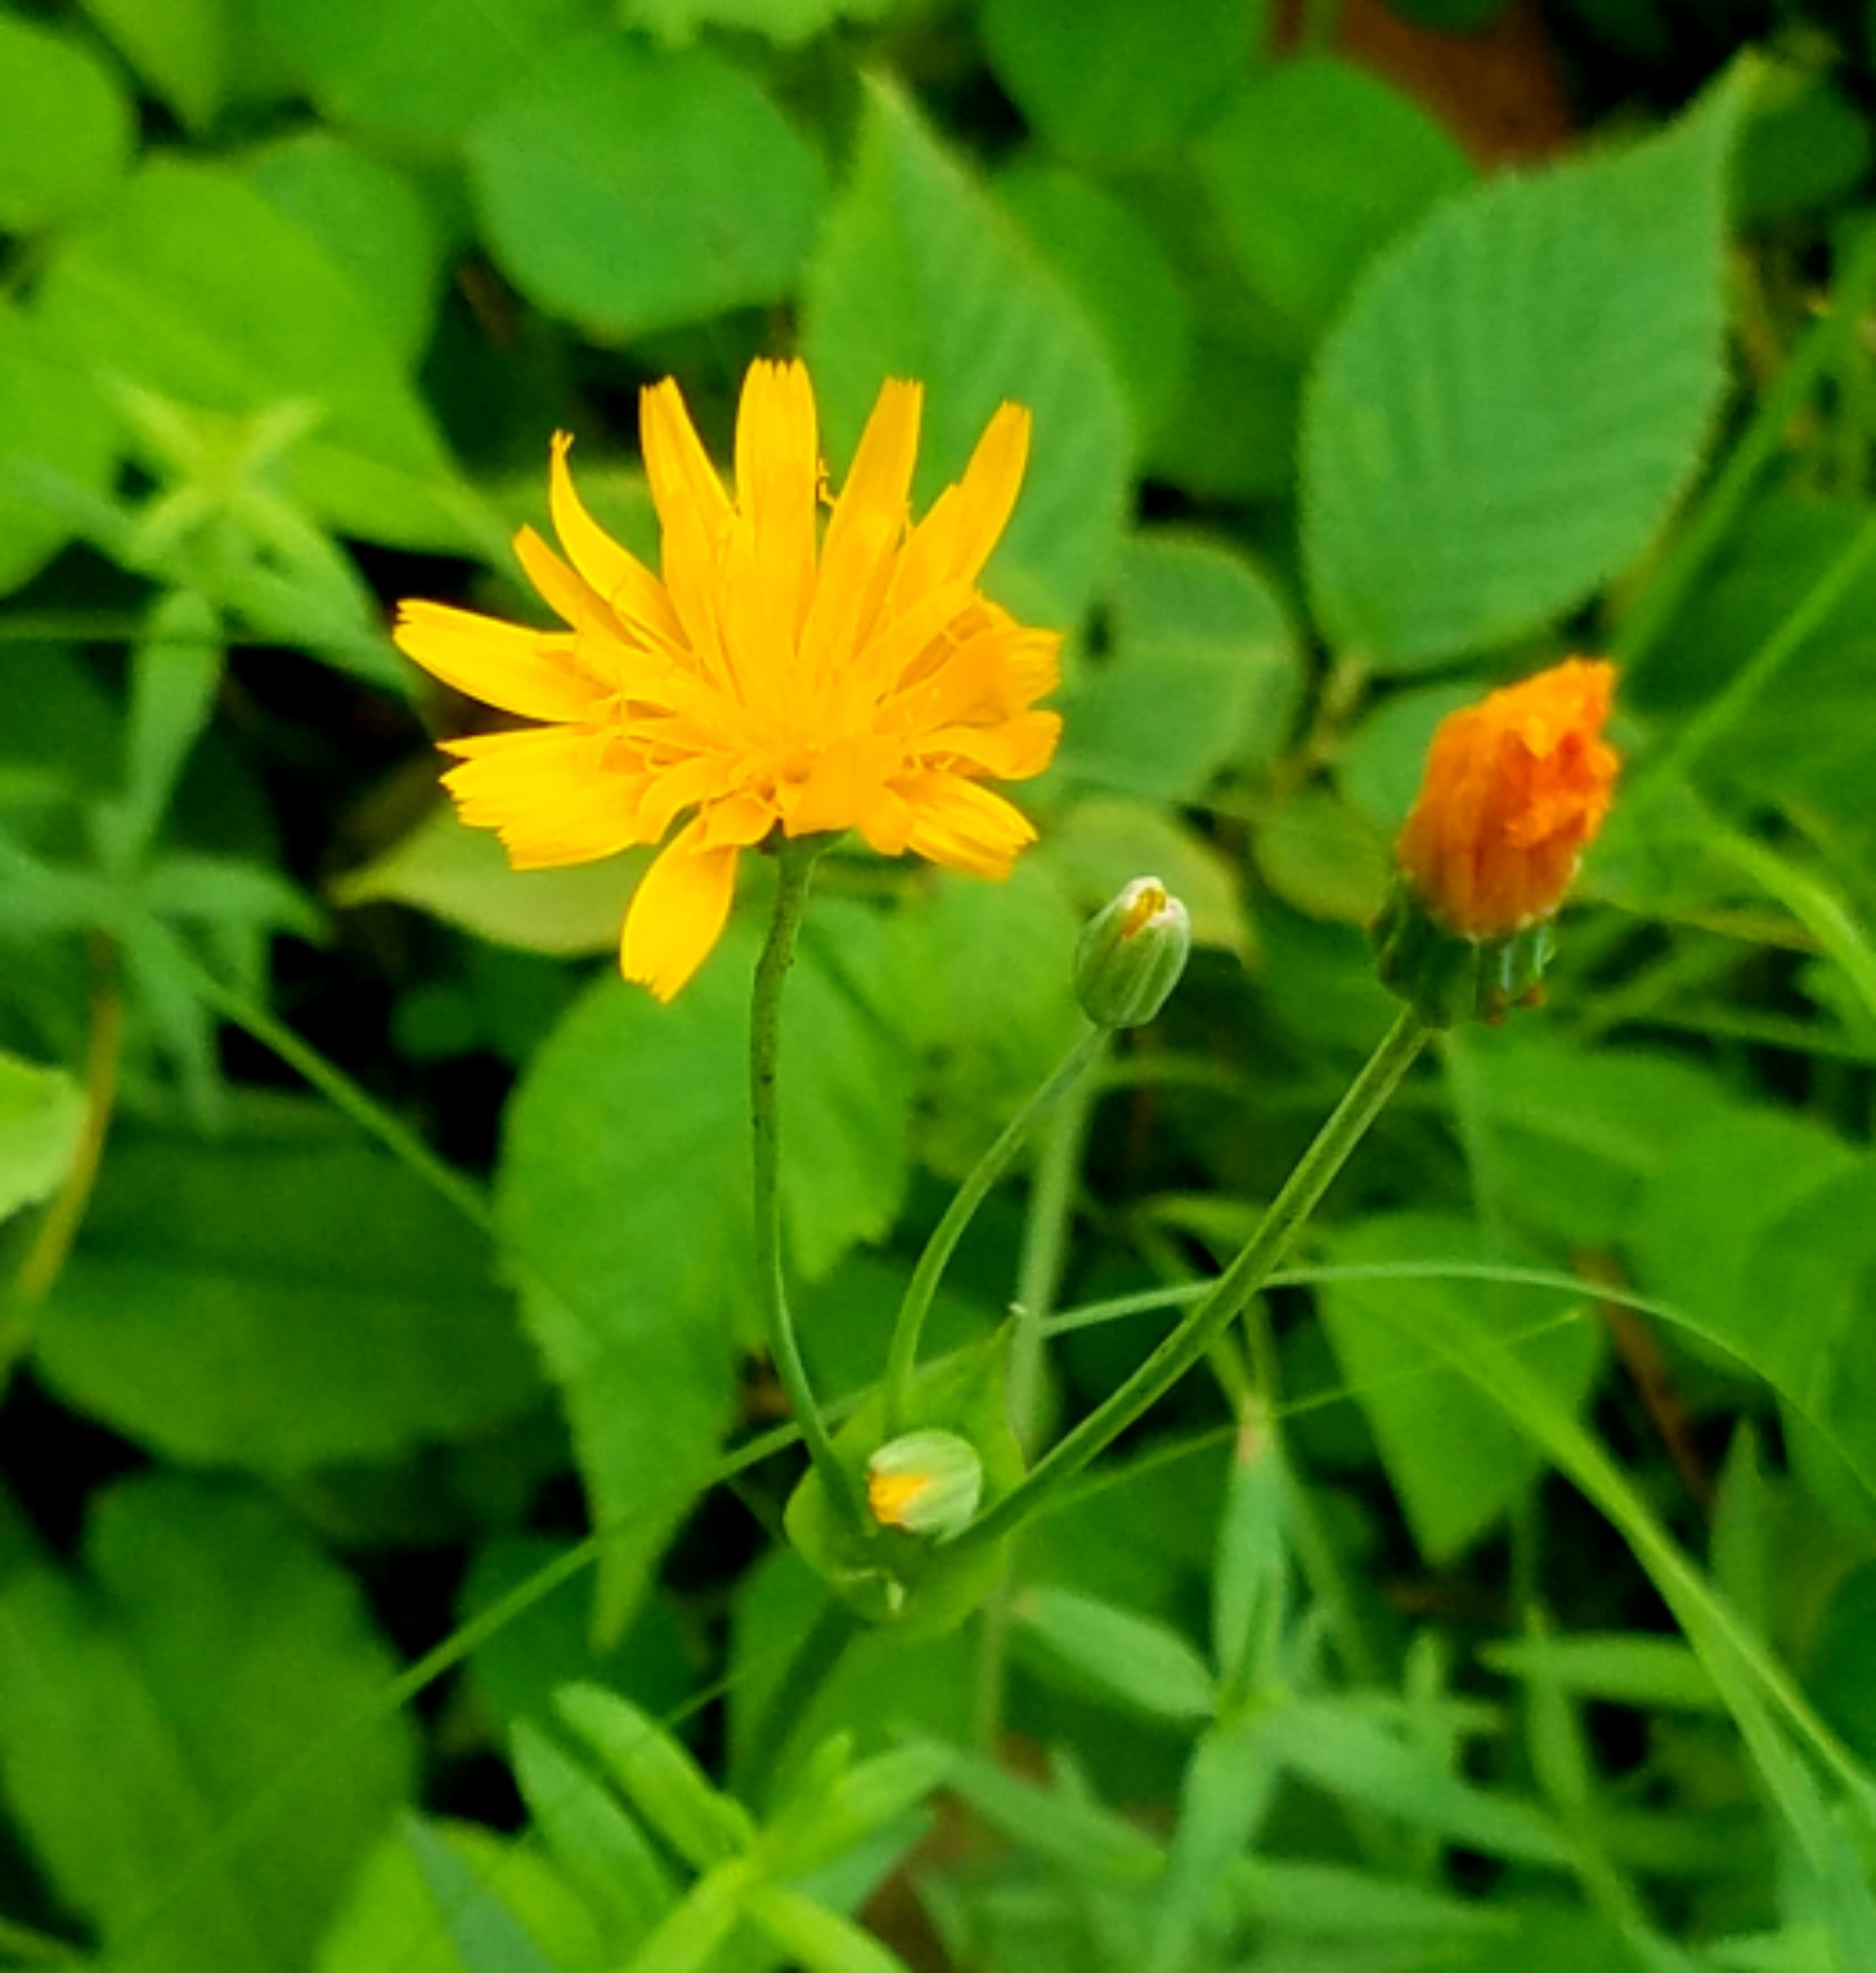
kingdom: Plantae
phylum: Tracheophyta
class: Magnoliopsida
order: Asterales
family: Asteraceae
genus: Krigia
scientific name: Krigia biflora
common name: Orange dwarf-dandelion
